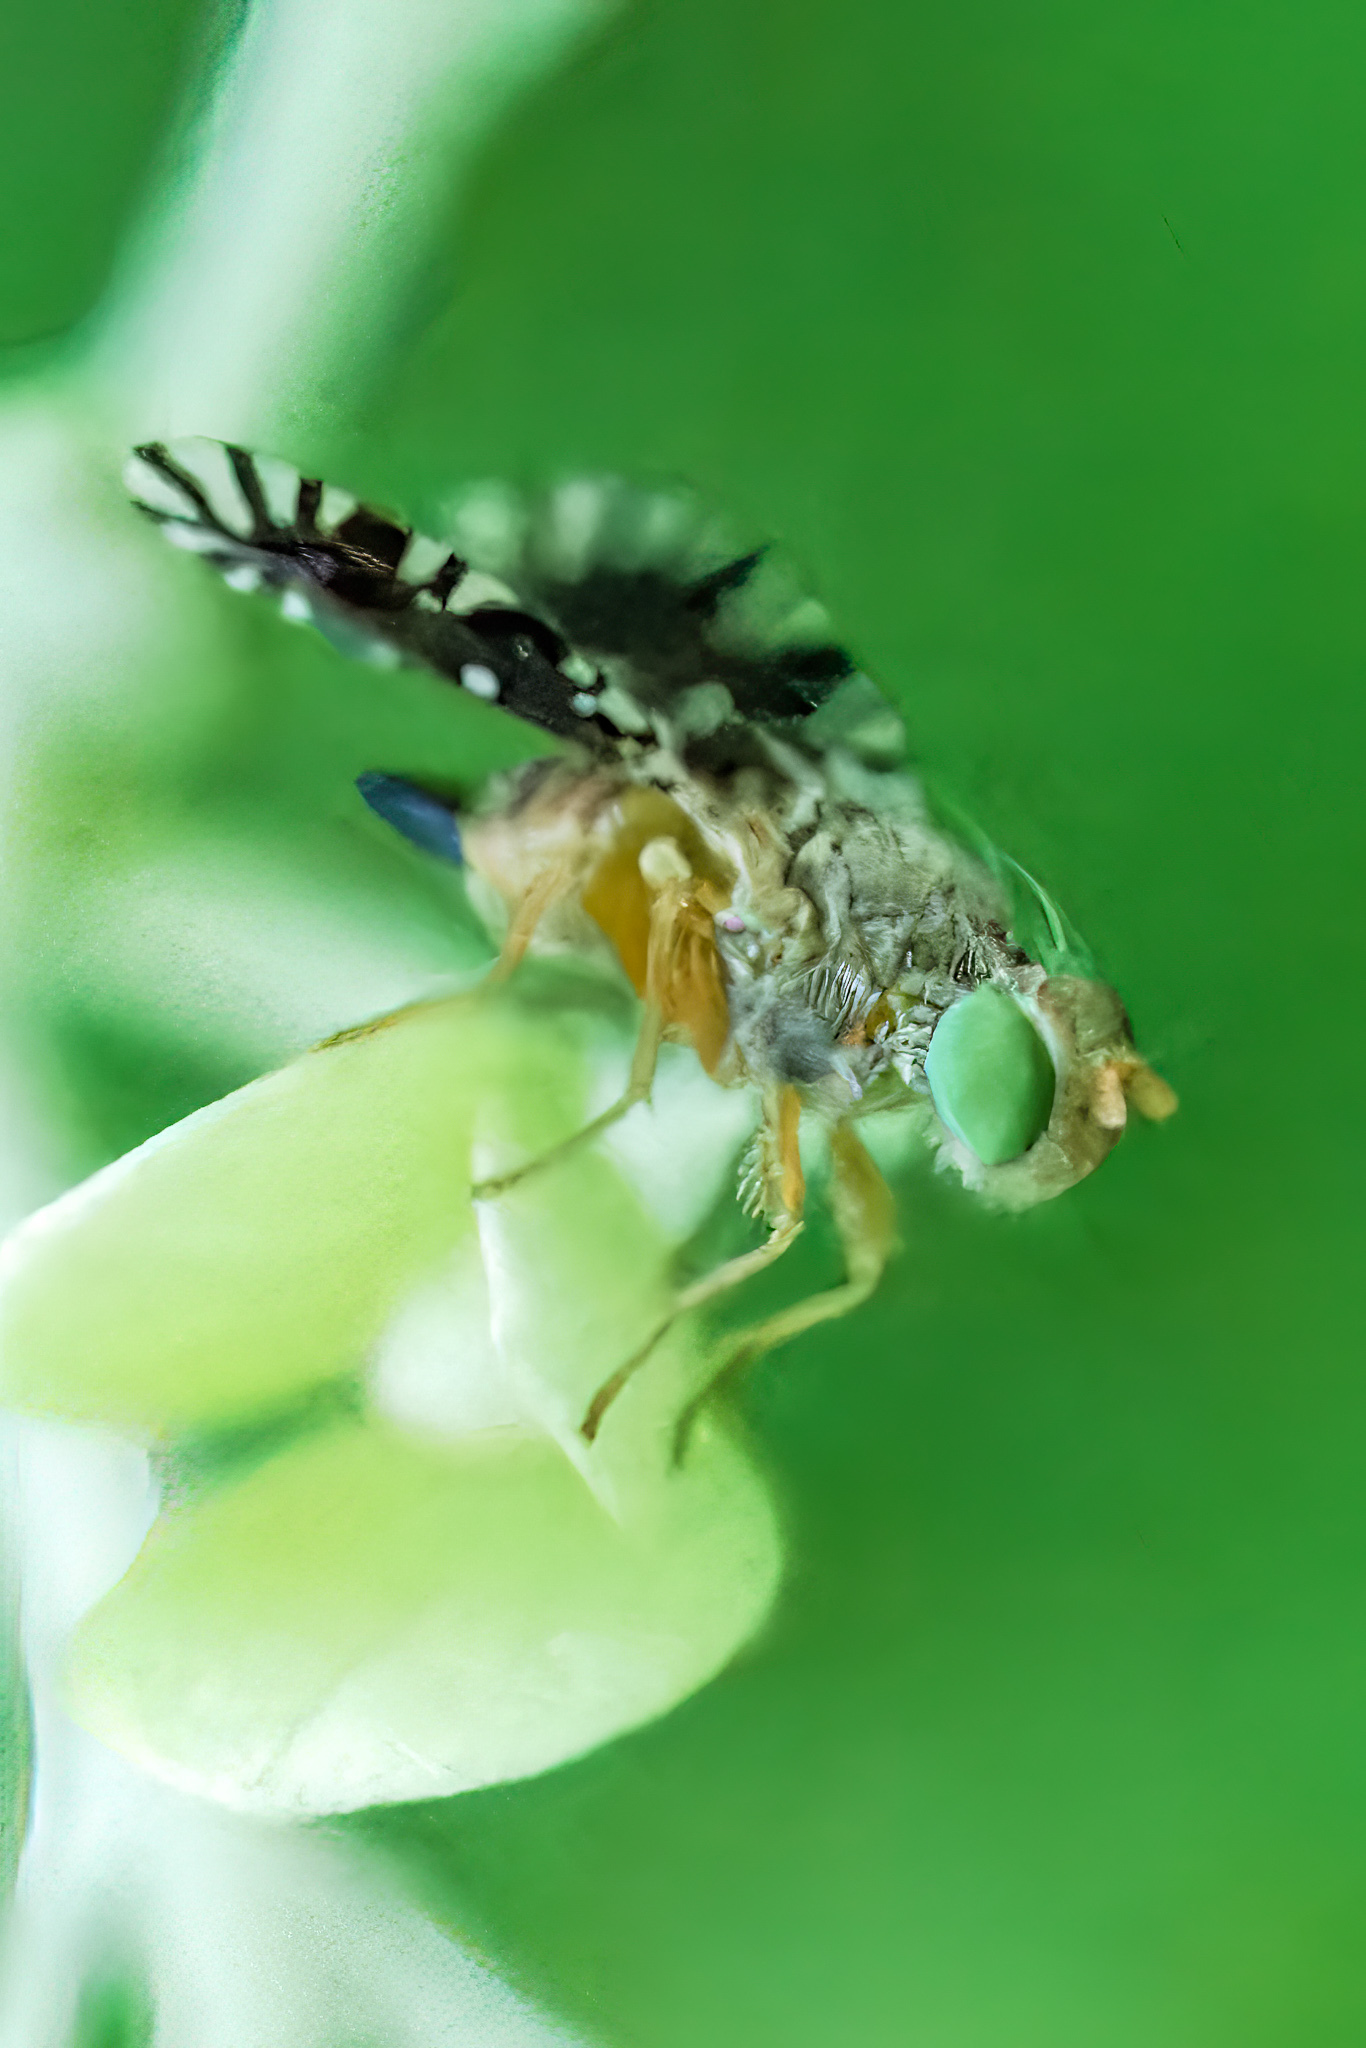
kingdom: Animalia
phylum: Arthropoda
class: Insecta
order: Diptera
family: Tephritidae
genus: Euaresta
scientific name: Euaresta bella
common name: Common ragweed fruit fly
